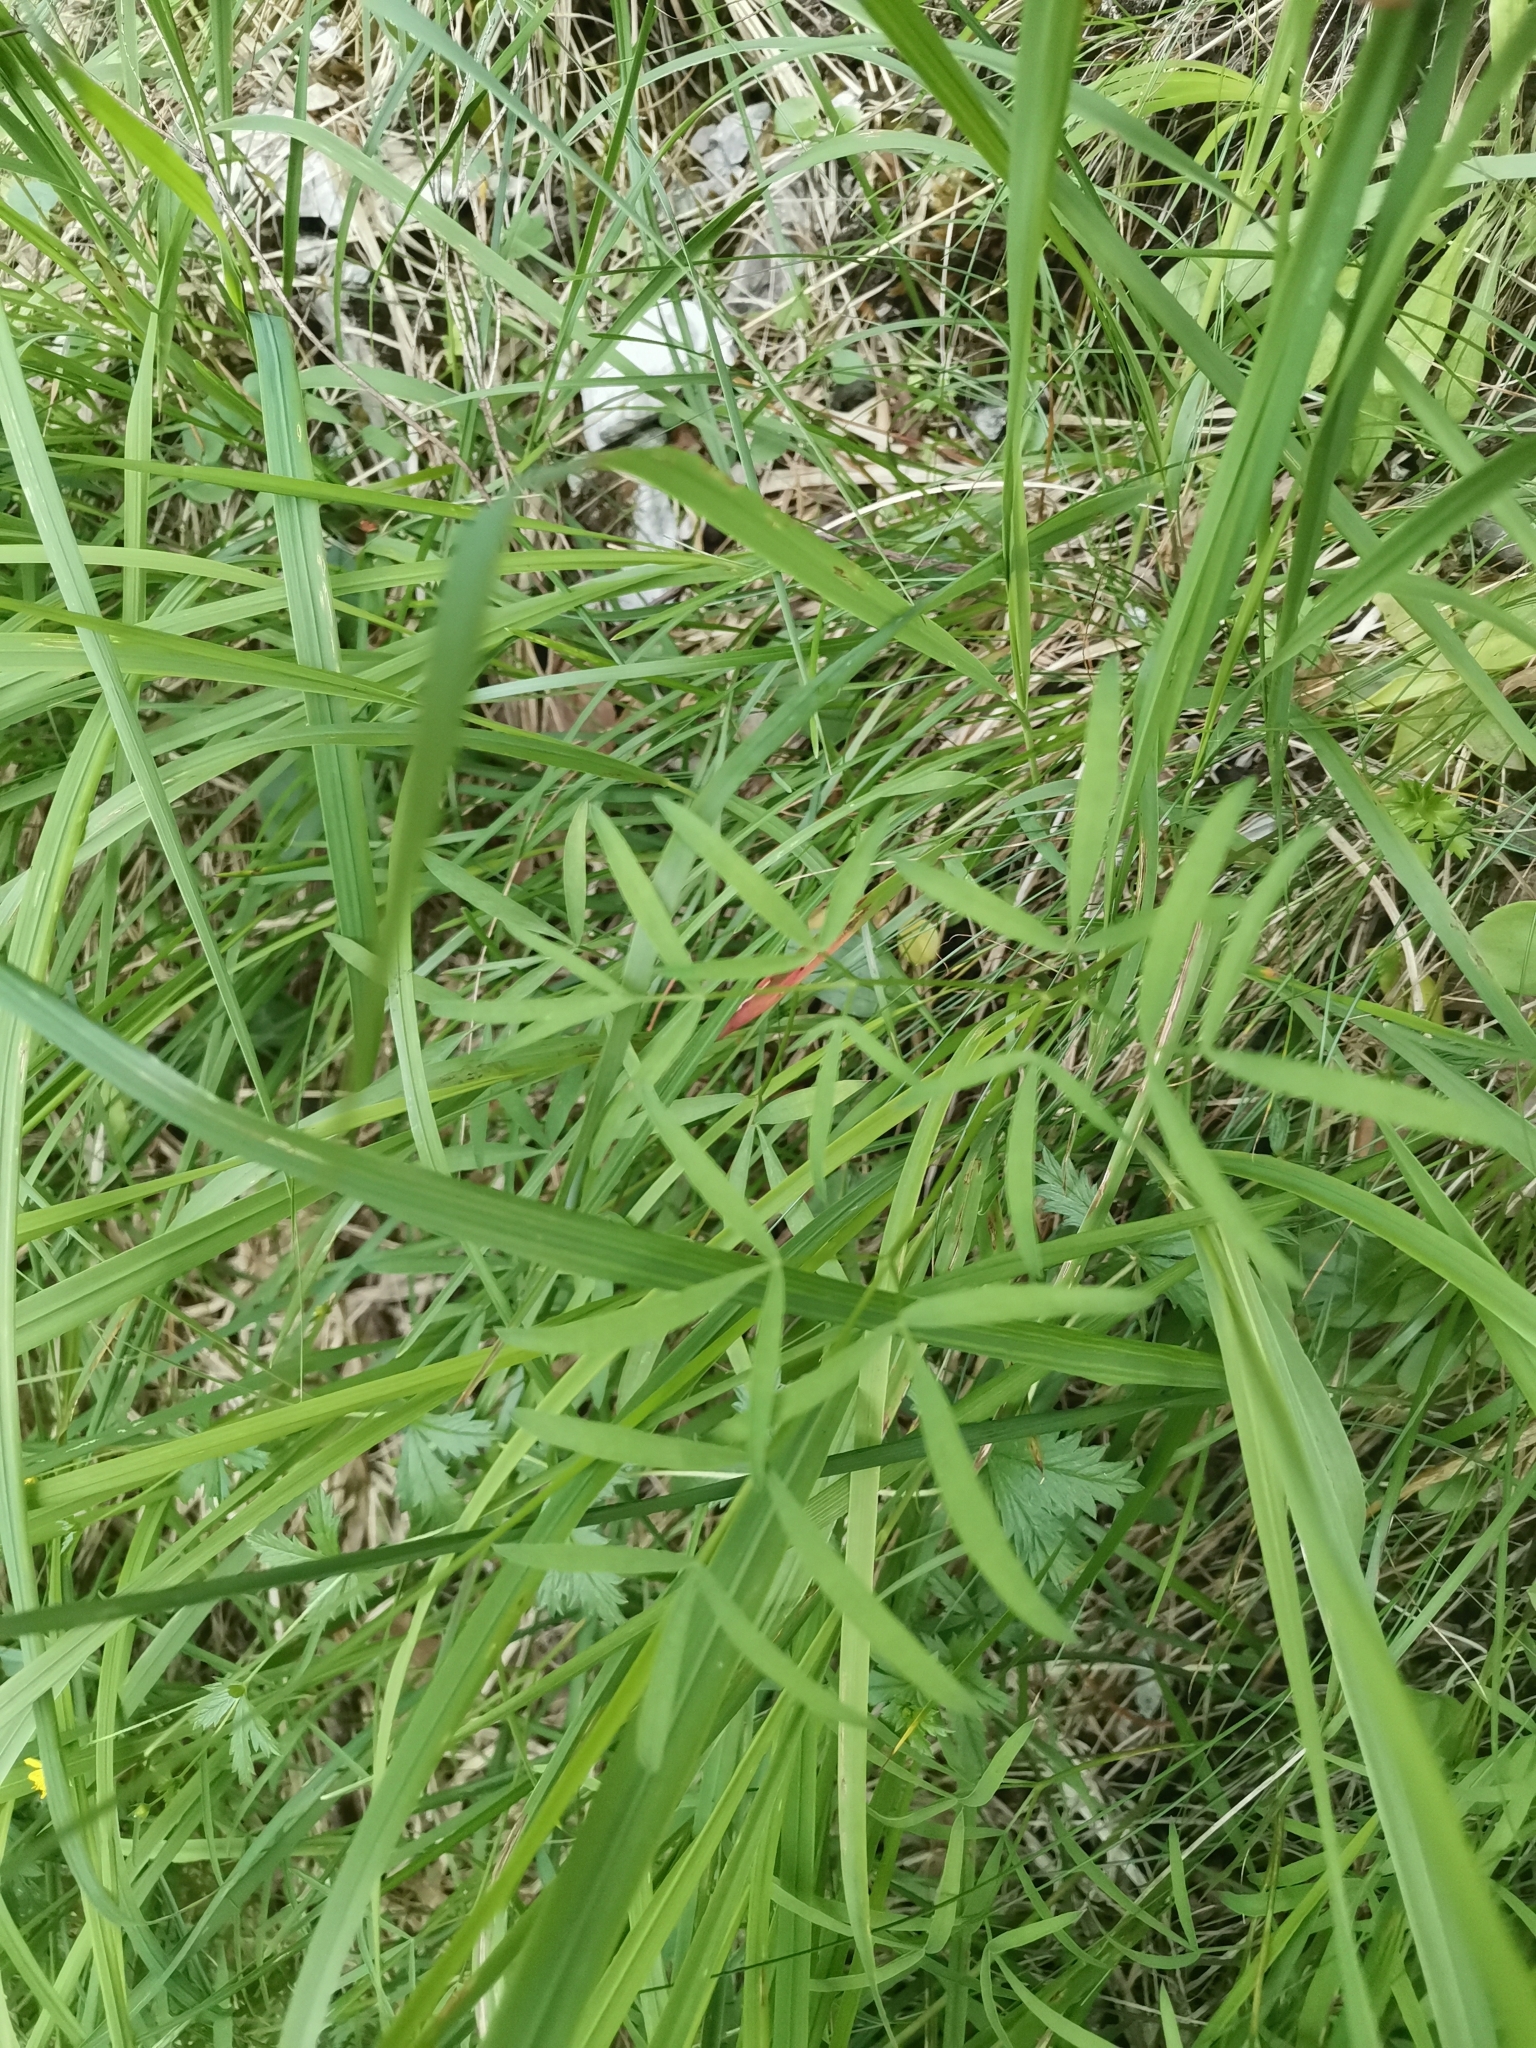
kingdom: Plantae
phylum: Tracheophyta
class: Magnoliopsida
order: Apiales
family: Apiaceae
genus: Laserpitium
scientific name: Laserpitium peucedanoides
